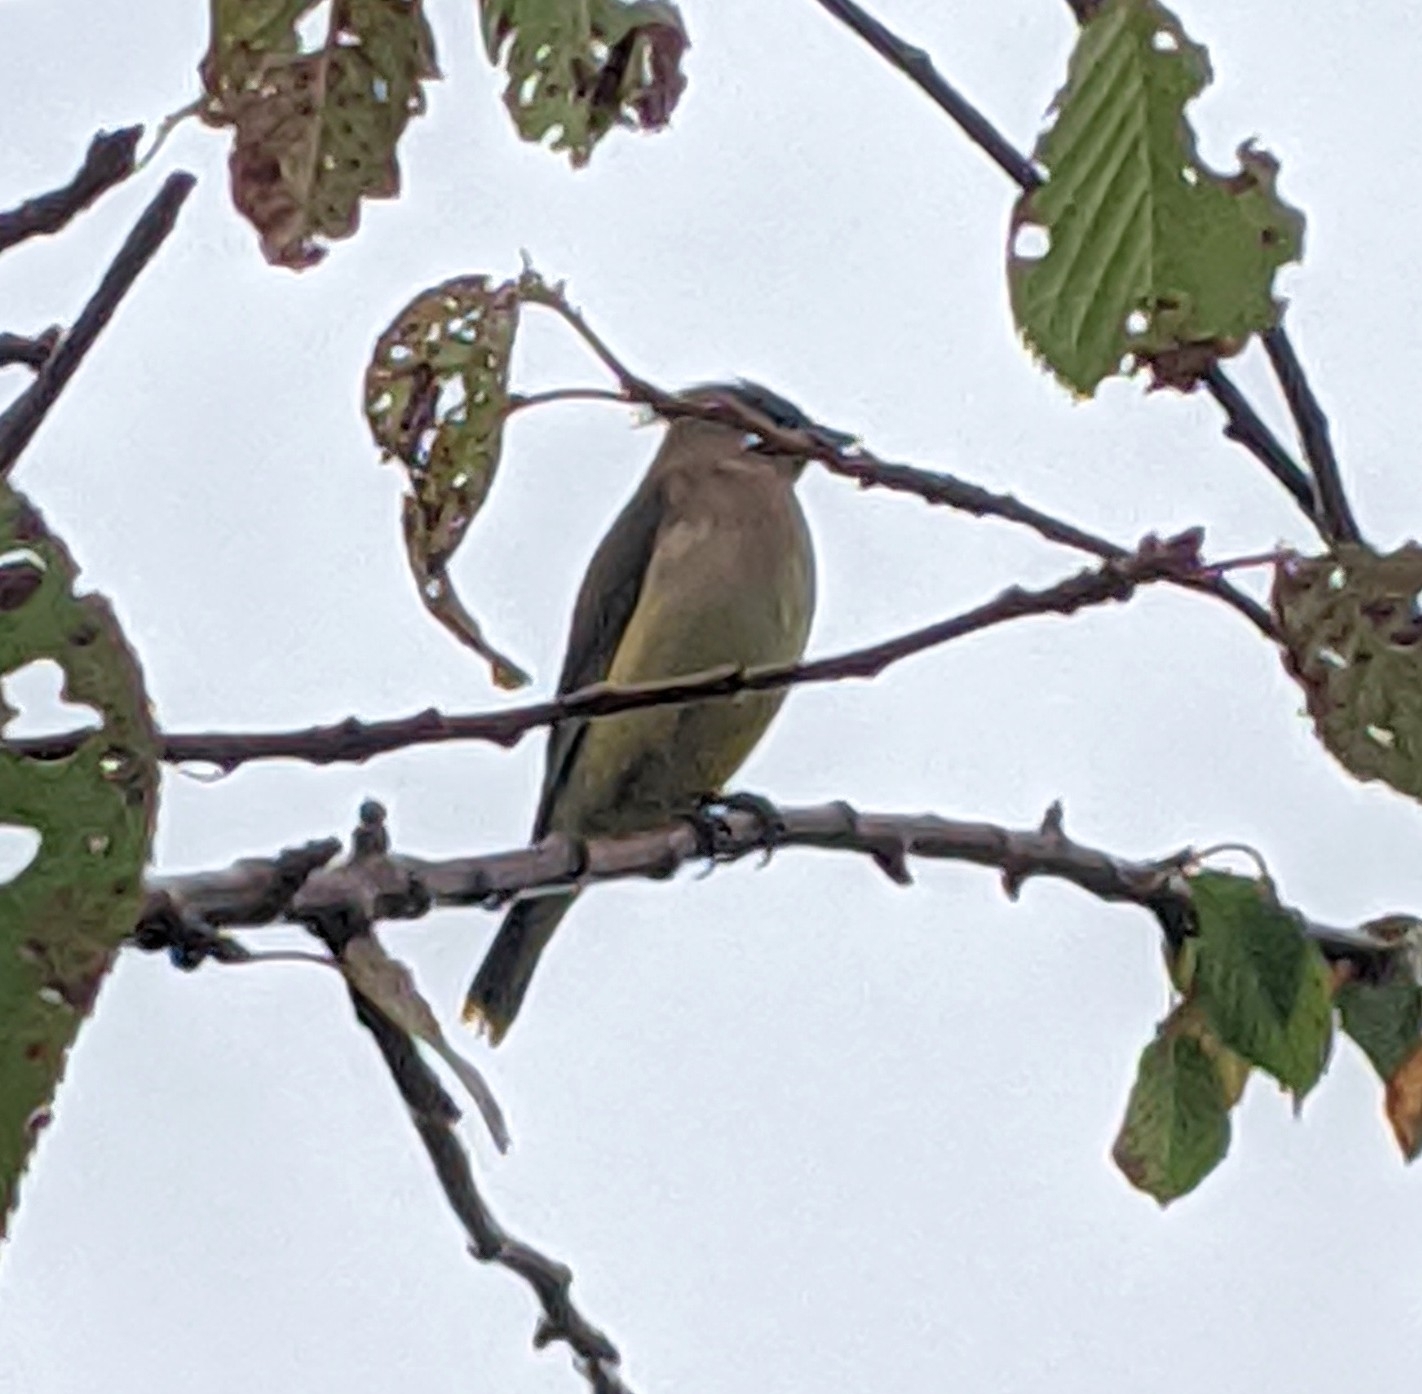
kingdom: Animalia
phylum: Chordata
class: Aves
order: Passeriformes
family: Bombycillidae
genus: Bombycilla
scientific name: Bombycilla cedrorum
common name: Cedar waxwing
